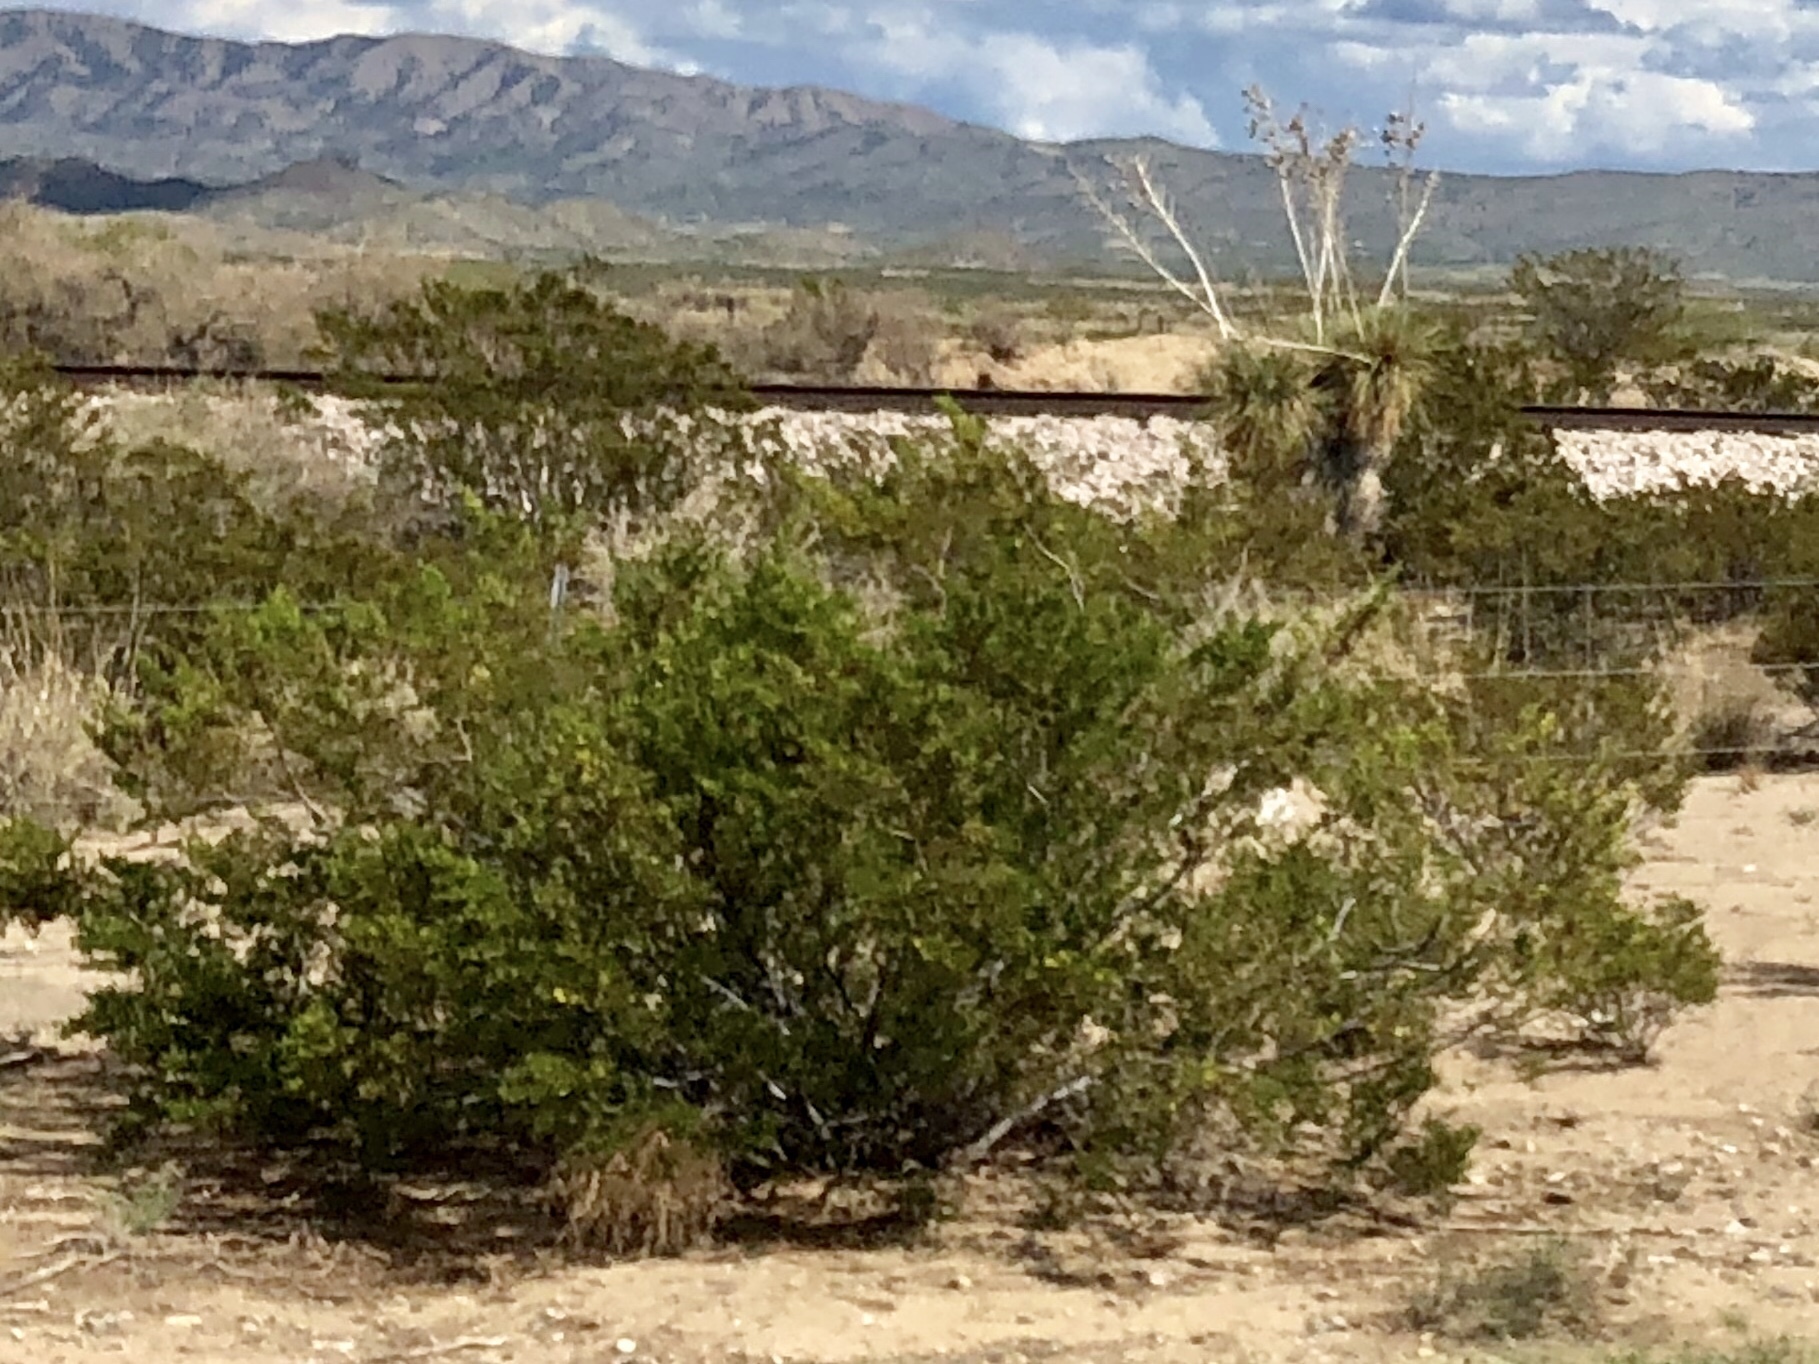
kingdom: Plantae
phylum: Tracheophyta
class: Magnoliopsida
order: Zygophyllales
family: Zygophyllaceae
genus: Larrea
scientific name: Larrea tridentata
